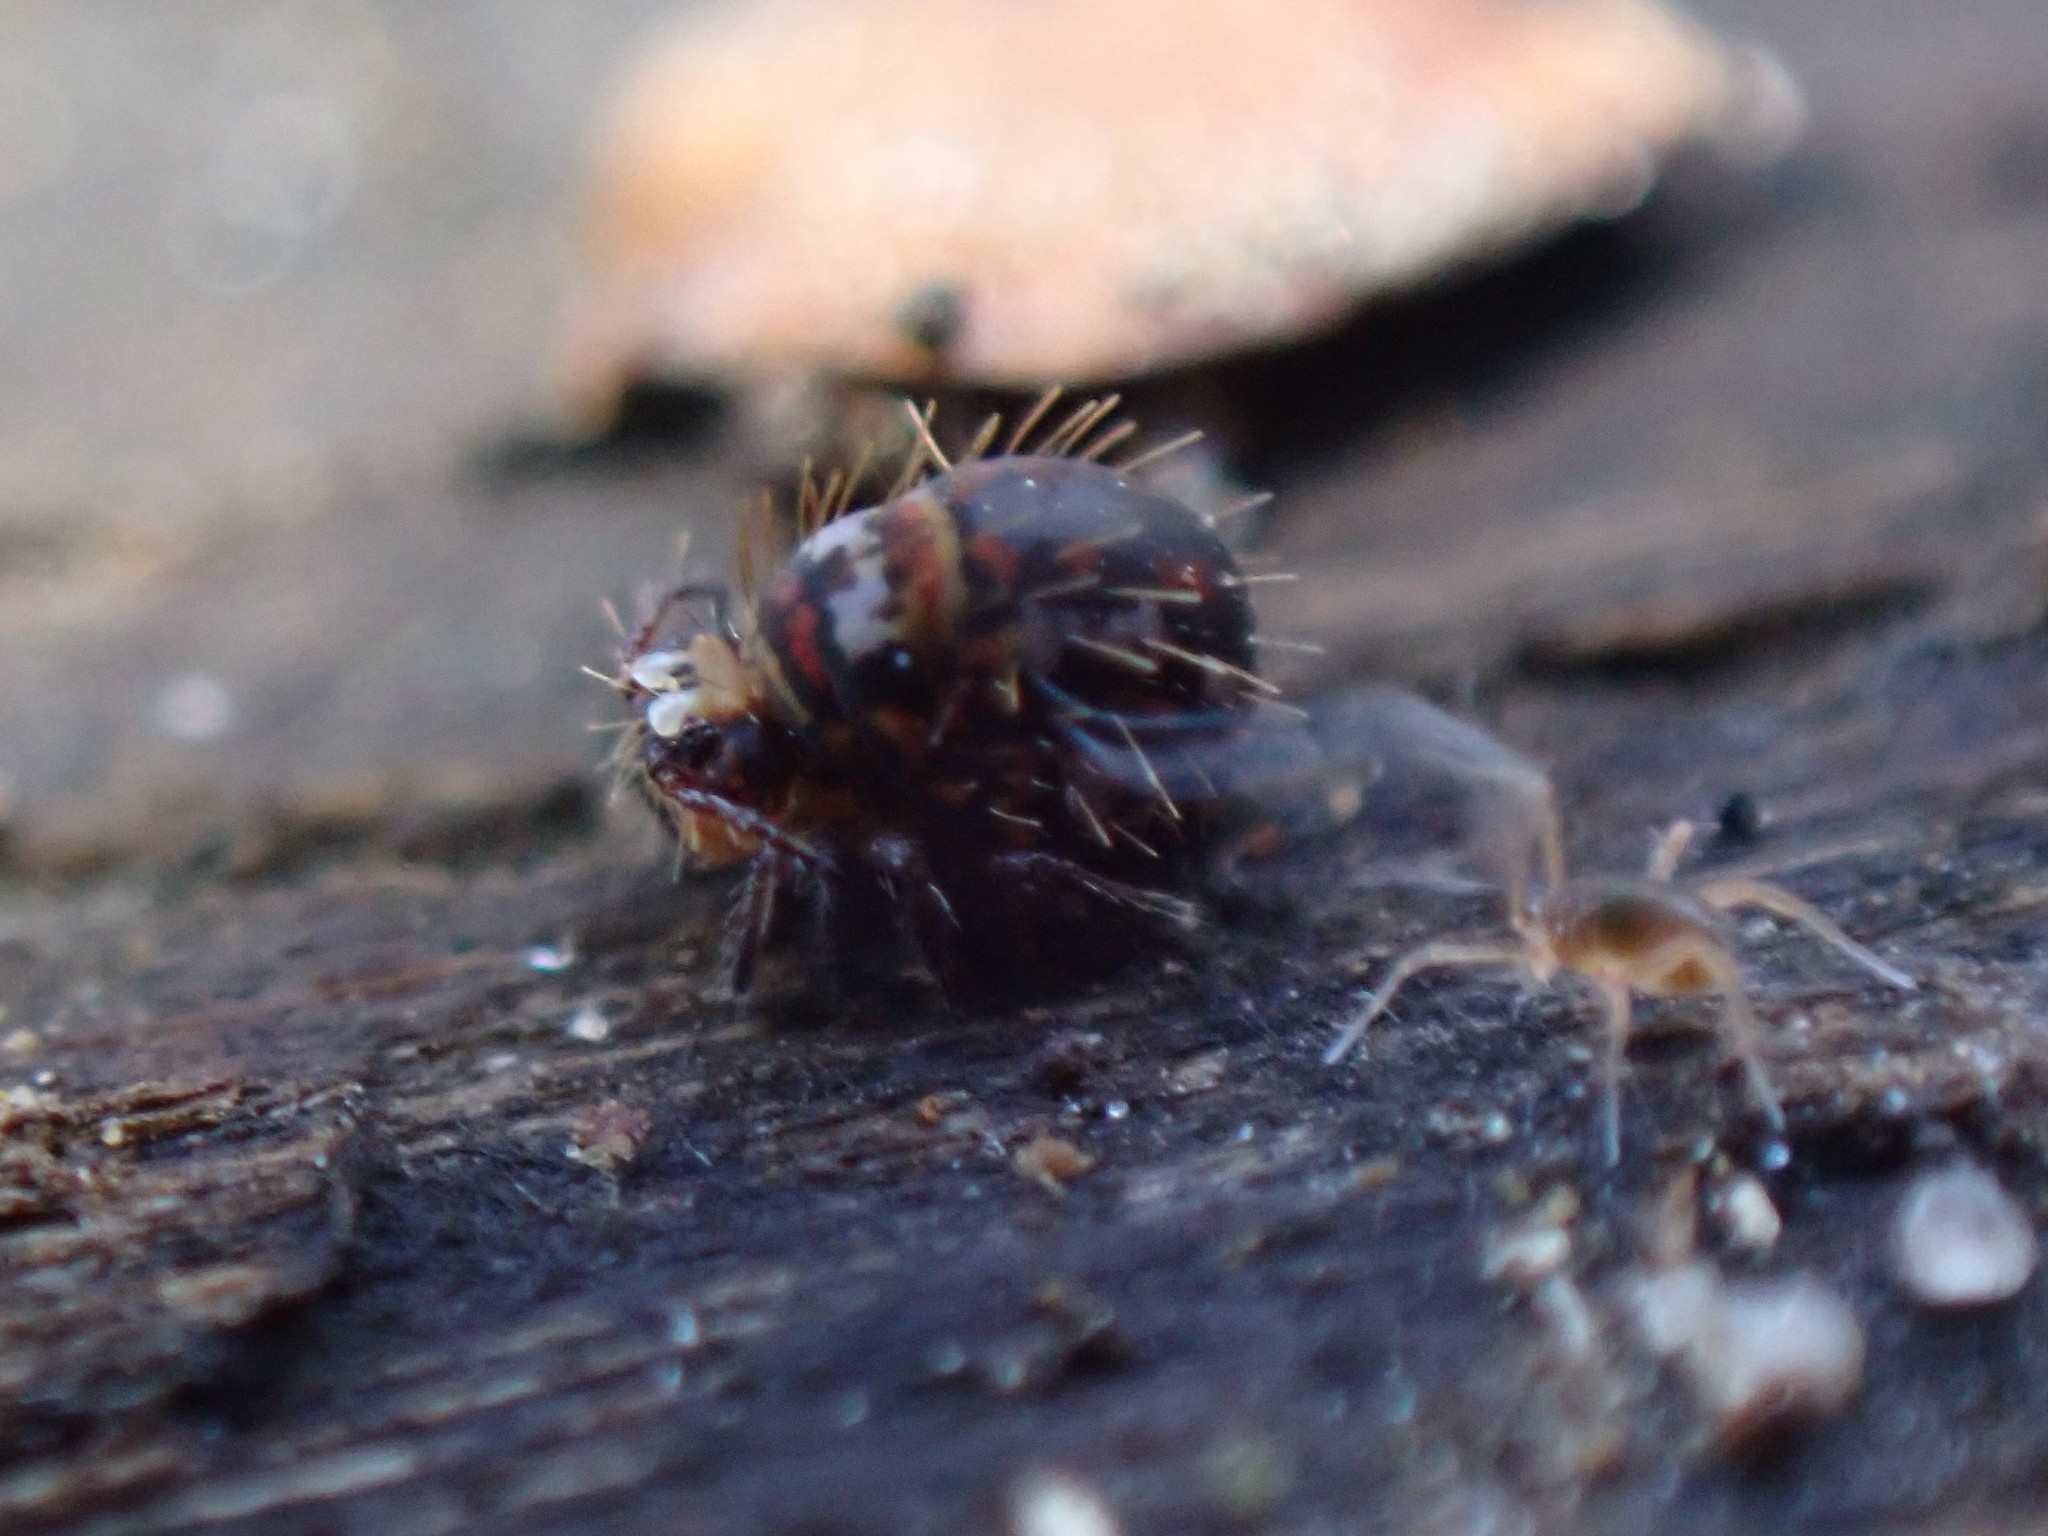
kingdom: Animalia
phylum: Arthropoda
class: Collembola
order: Symphypleona
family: Katiannidae
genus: Vesicephalus
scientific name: Vesicephalus occidentalis
